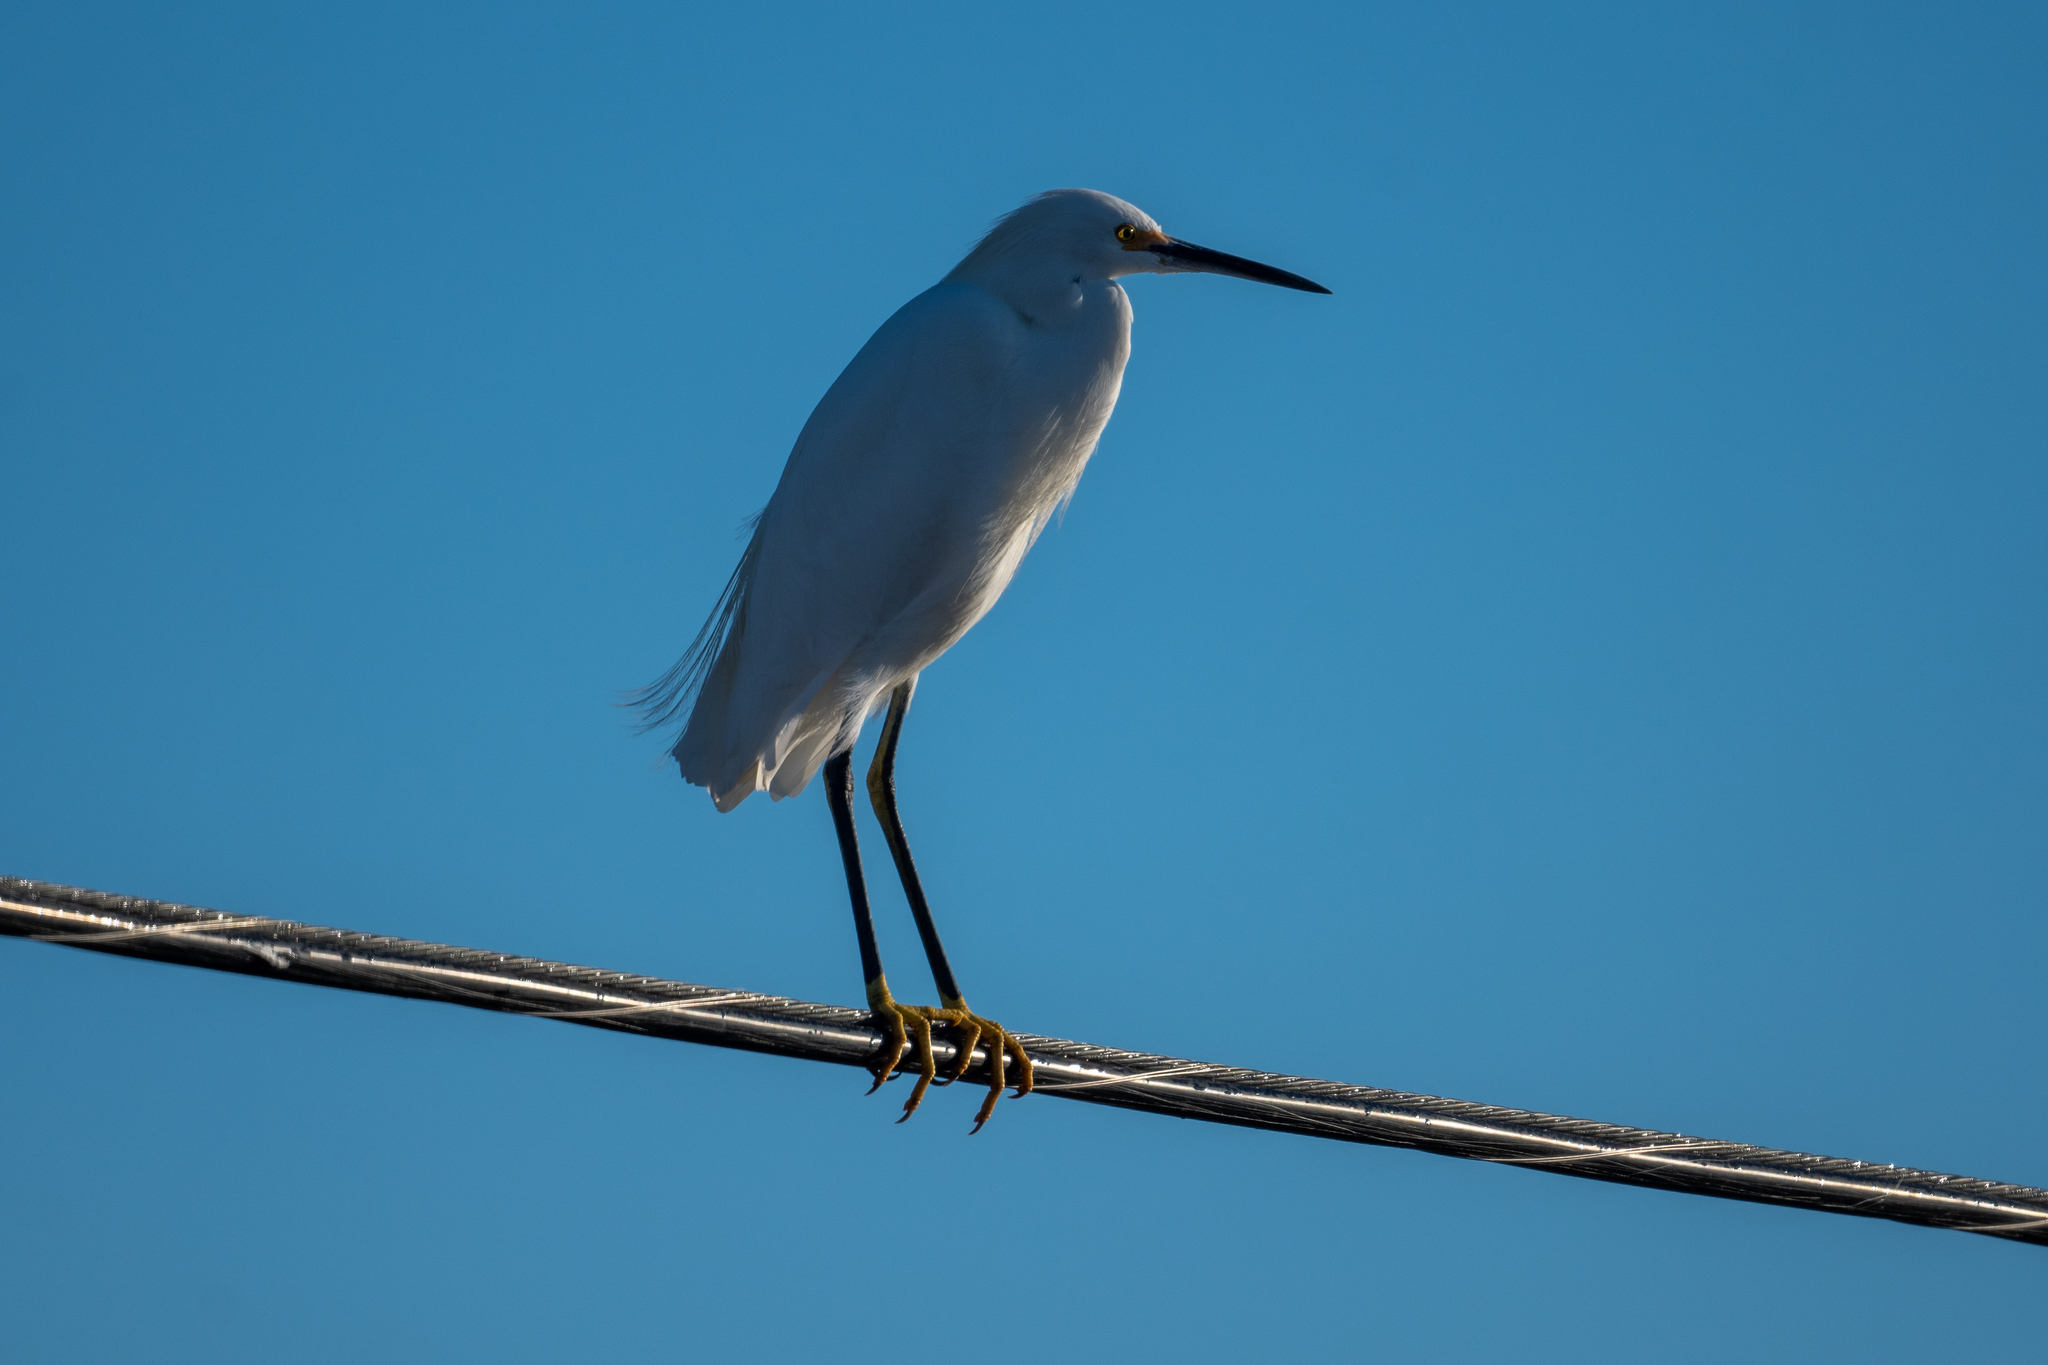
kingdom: Animalia
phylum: Chordata
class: Aves
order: Pelecaniformes
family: Ardeidae
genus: Egretta
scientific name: Egretta thula
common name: Snowy egret
